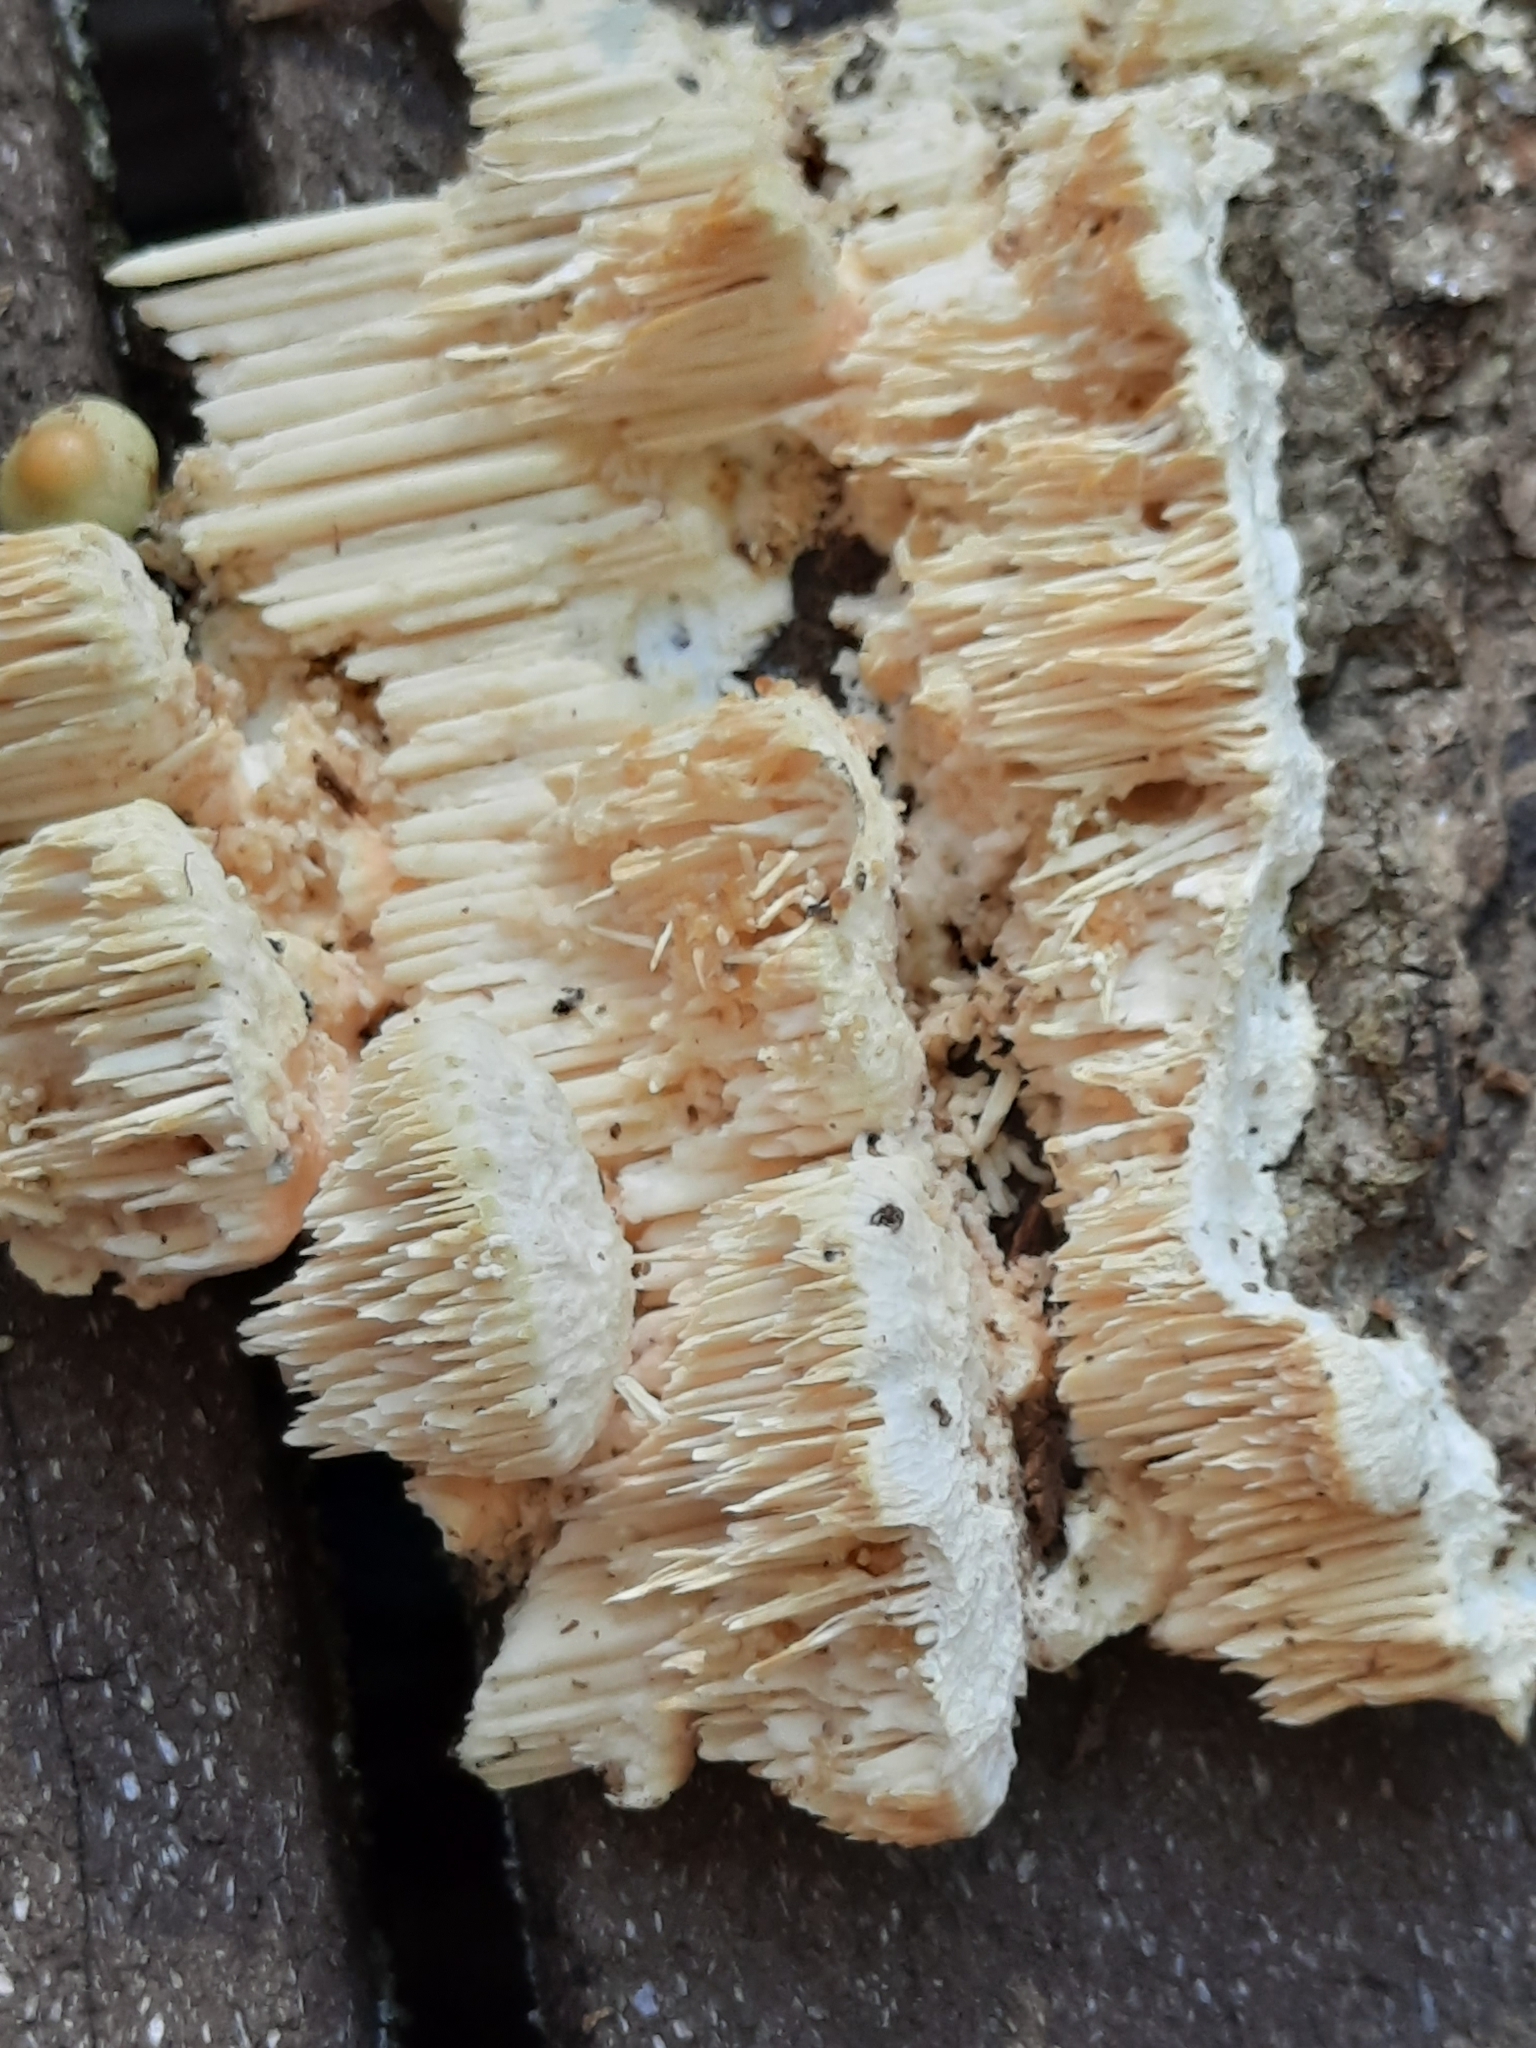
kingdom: Fungi
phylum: Basidiomycota
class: Agaricomycetes
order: Polyporales
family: Meruliaceae
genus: Irpiciporus
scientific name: Irpiciporus pachyodon
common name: Marshmallow polypore
